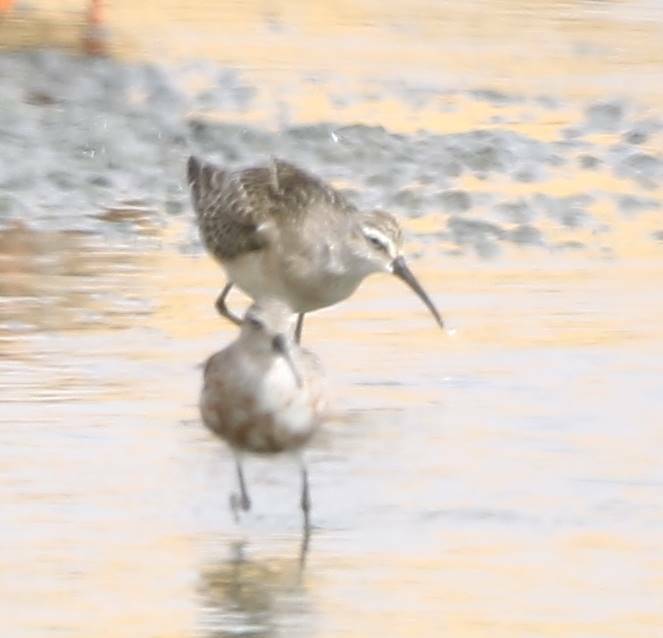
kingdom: Animalia
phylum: Chordata
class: Aves
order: Charadriiformes
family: Scolopacidae
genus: Calidris
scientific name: Calidris ferruginea
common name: Curlew sandpiper
